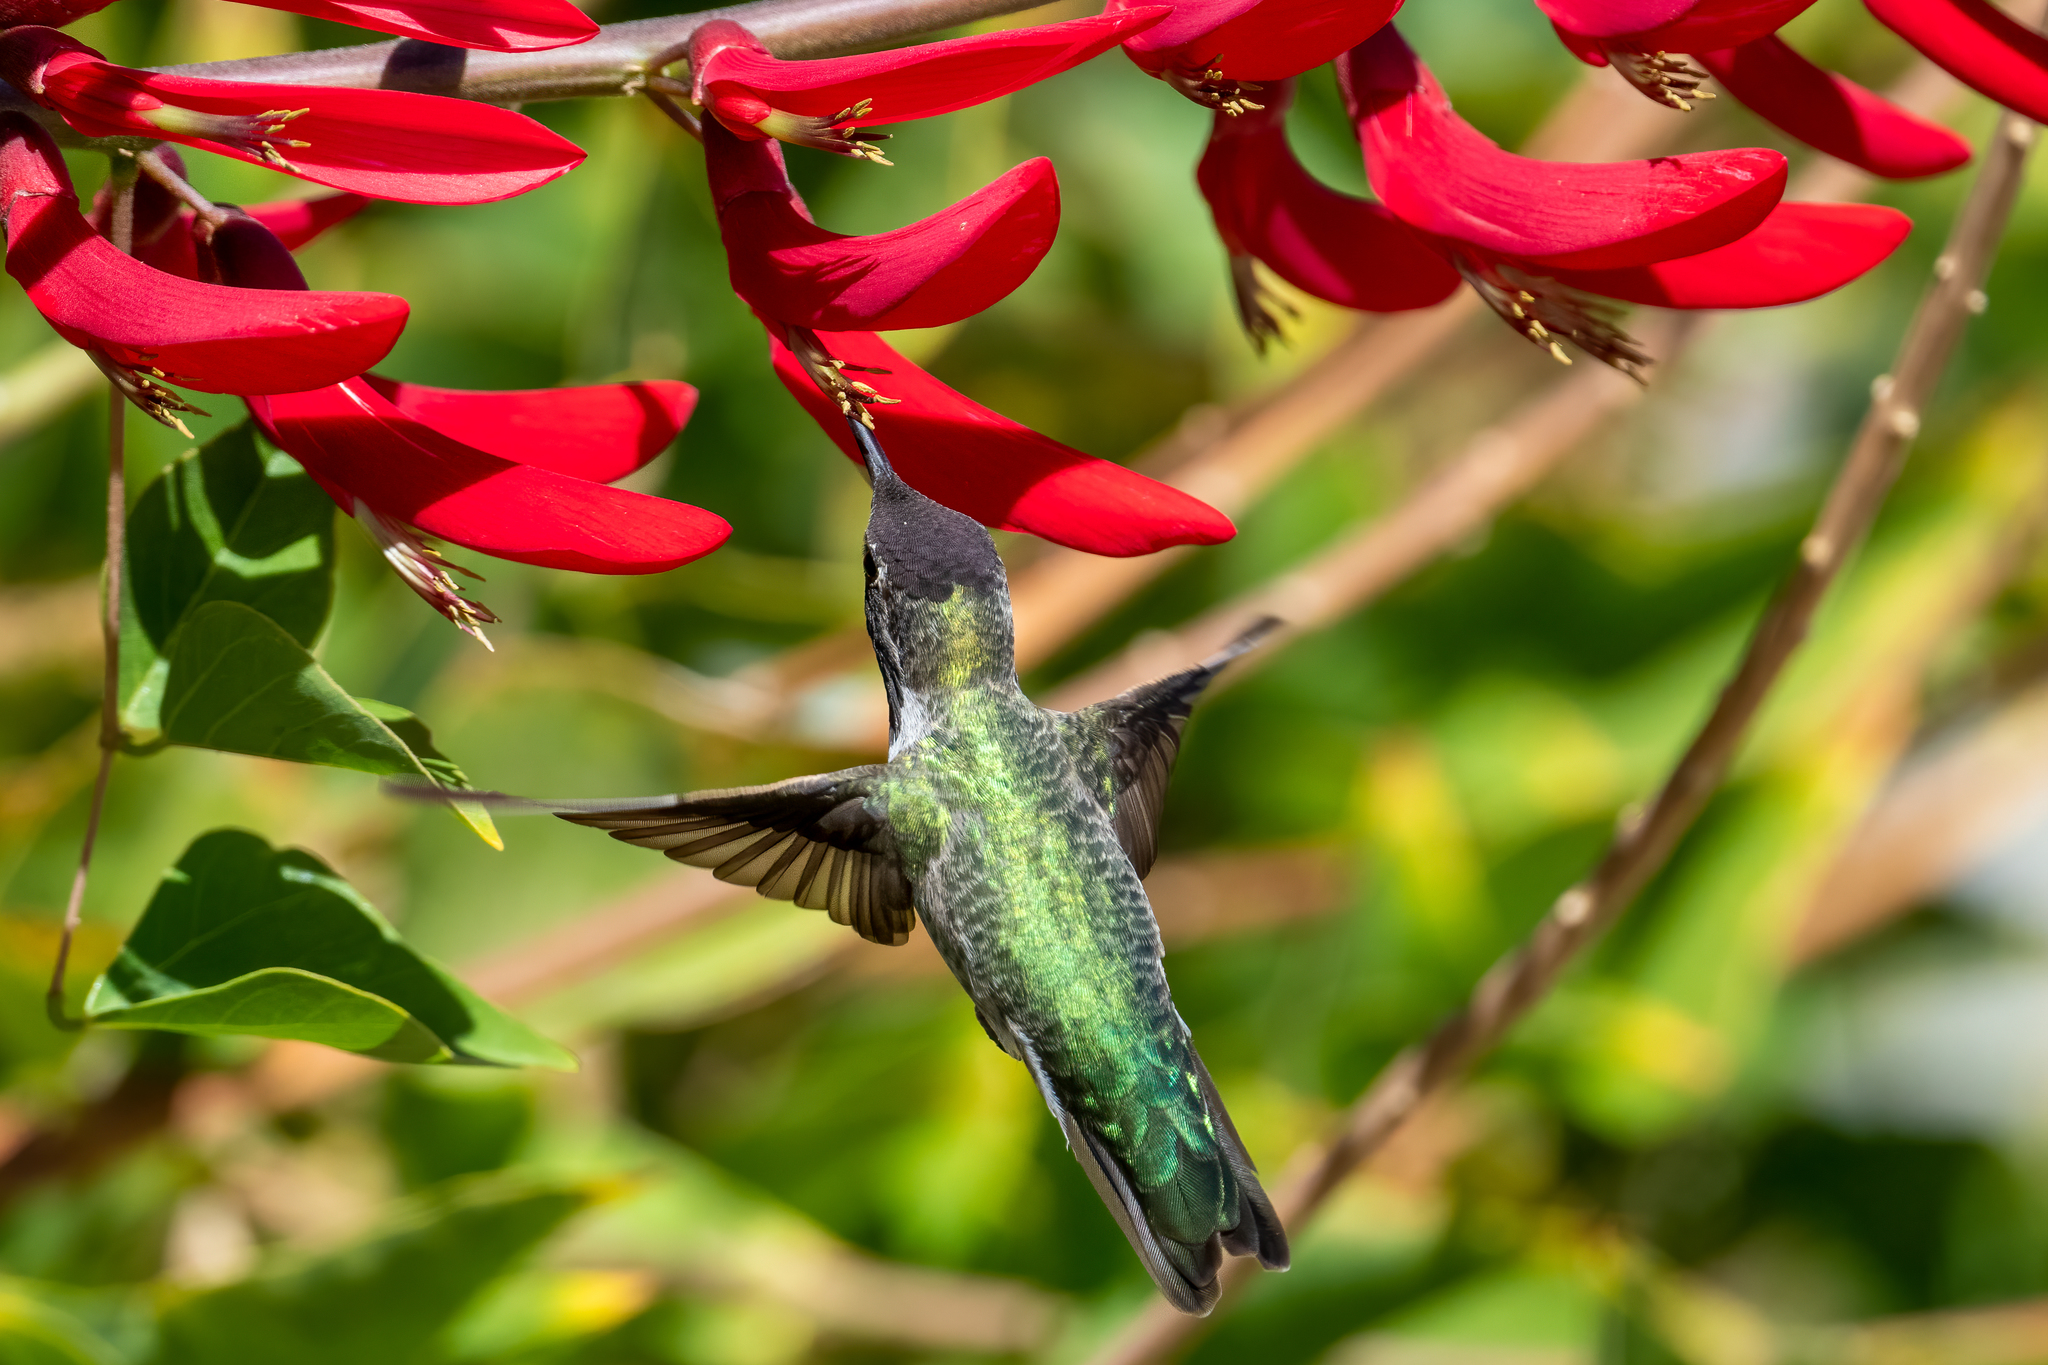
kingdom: Animalia
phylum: Chordata
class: Aves
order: Apodiformes
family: Trochilidae
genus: Calypte
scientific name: Calypte anna
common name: Anna's hummingbird
